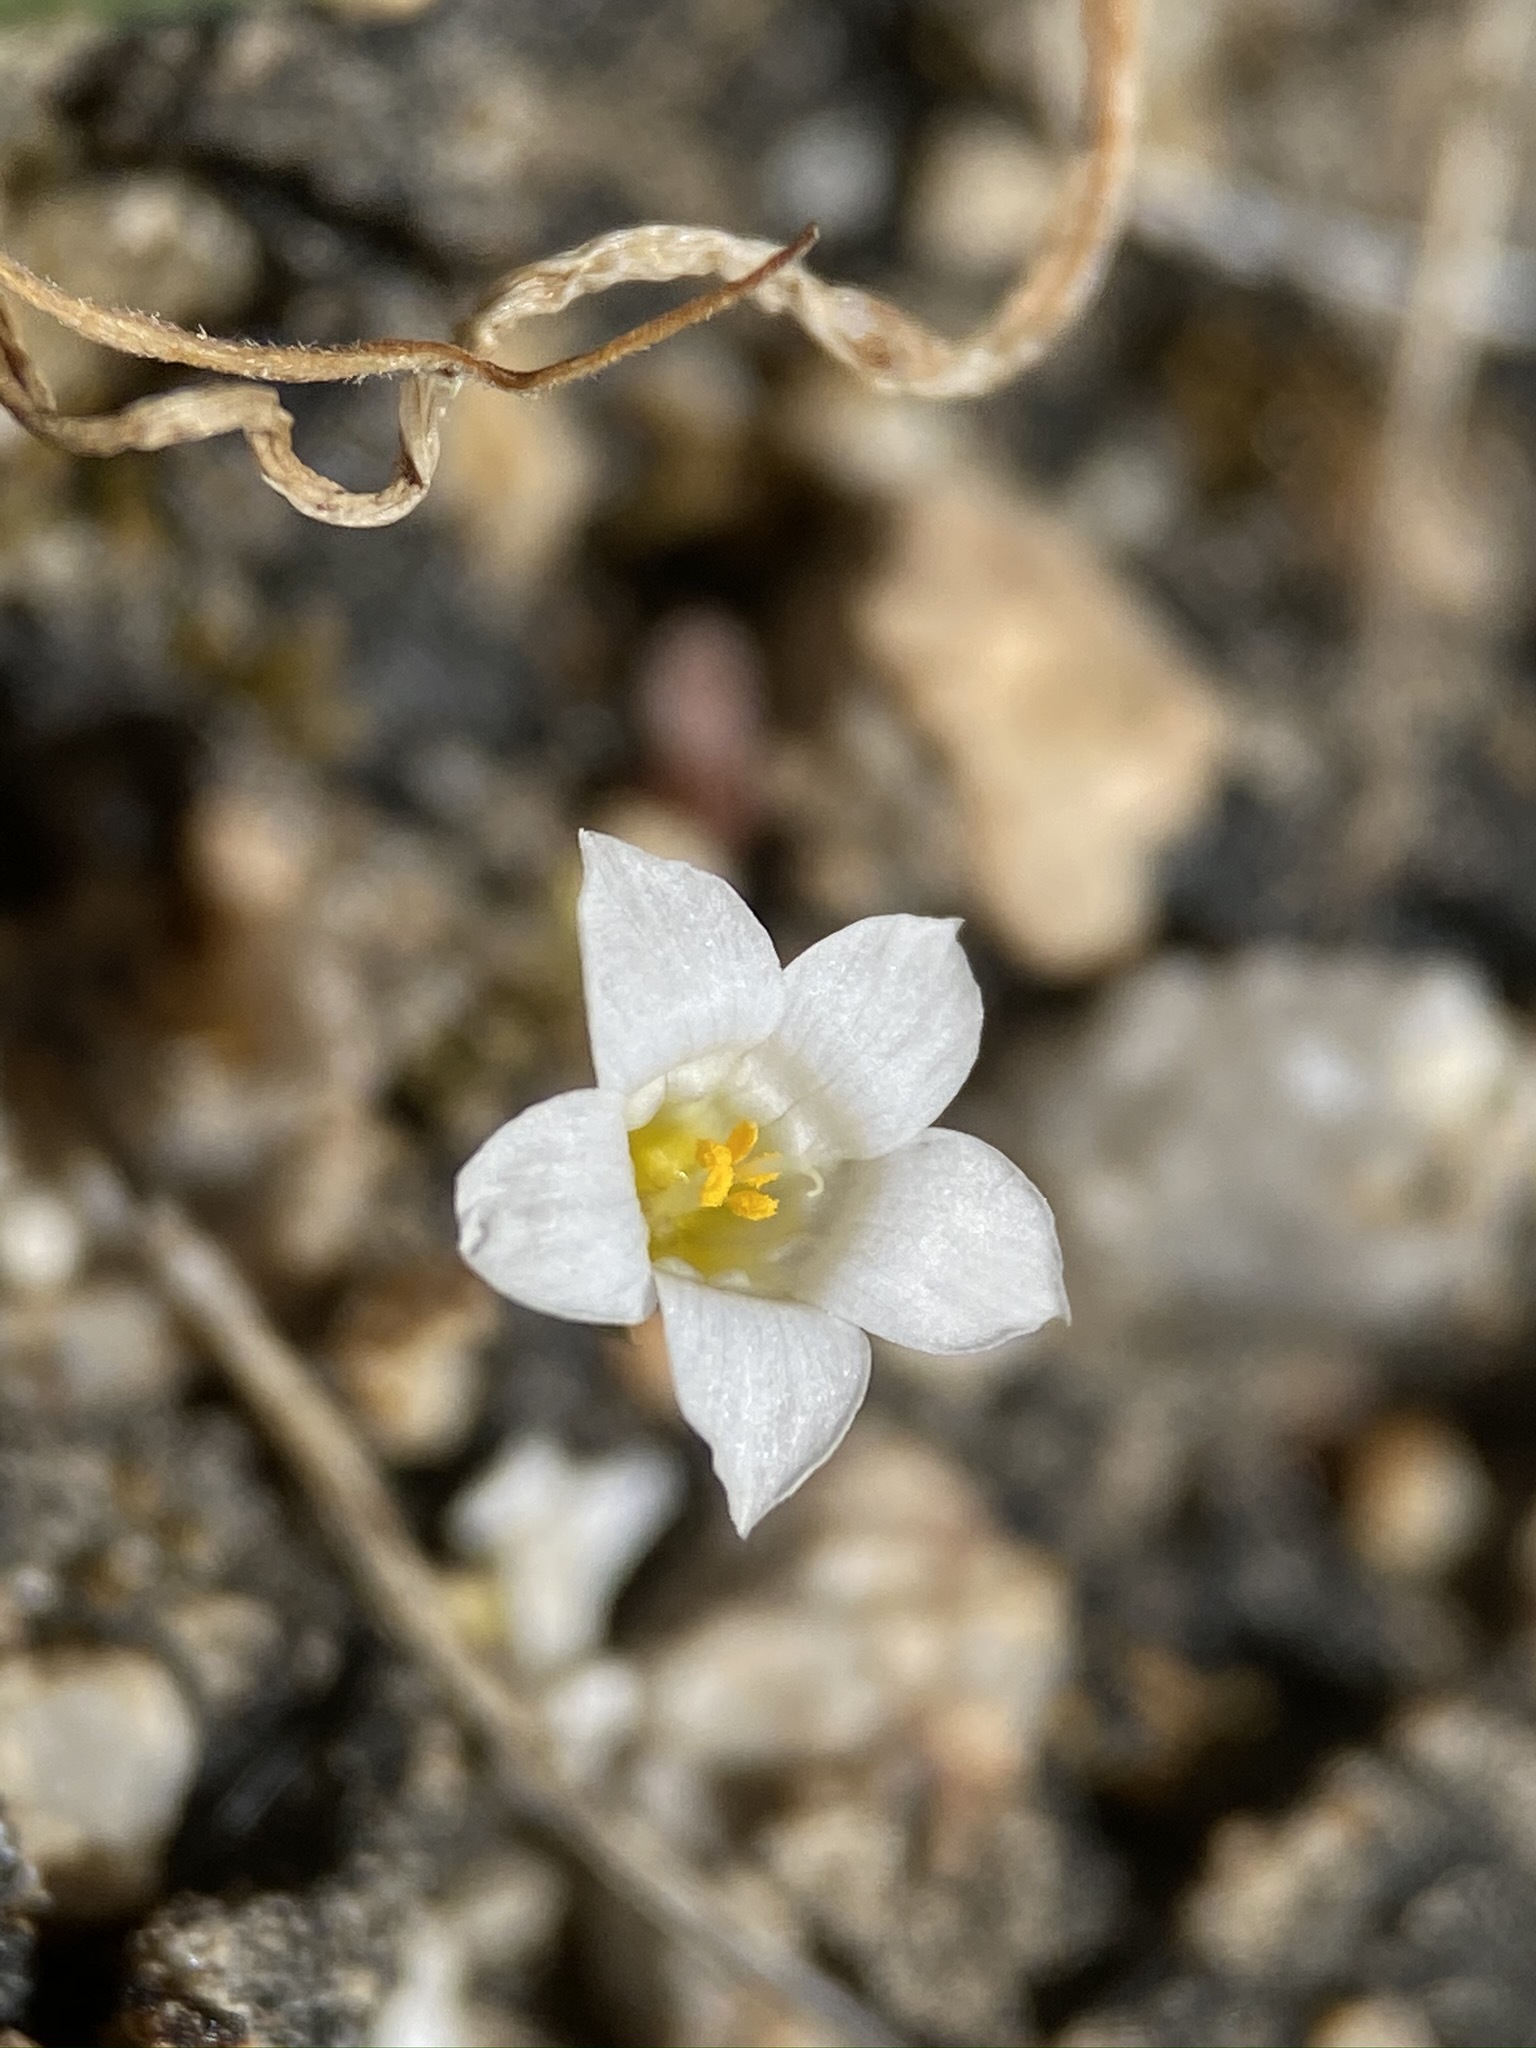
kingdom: Plantae
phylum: Tracheophyta
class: Magnoliopsida
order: Ericales
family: Polemoniaceae
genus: Linanthus
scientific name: Linanthus demissus
